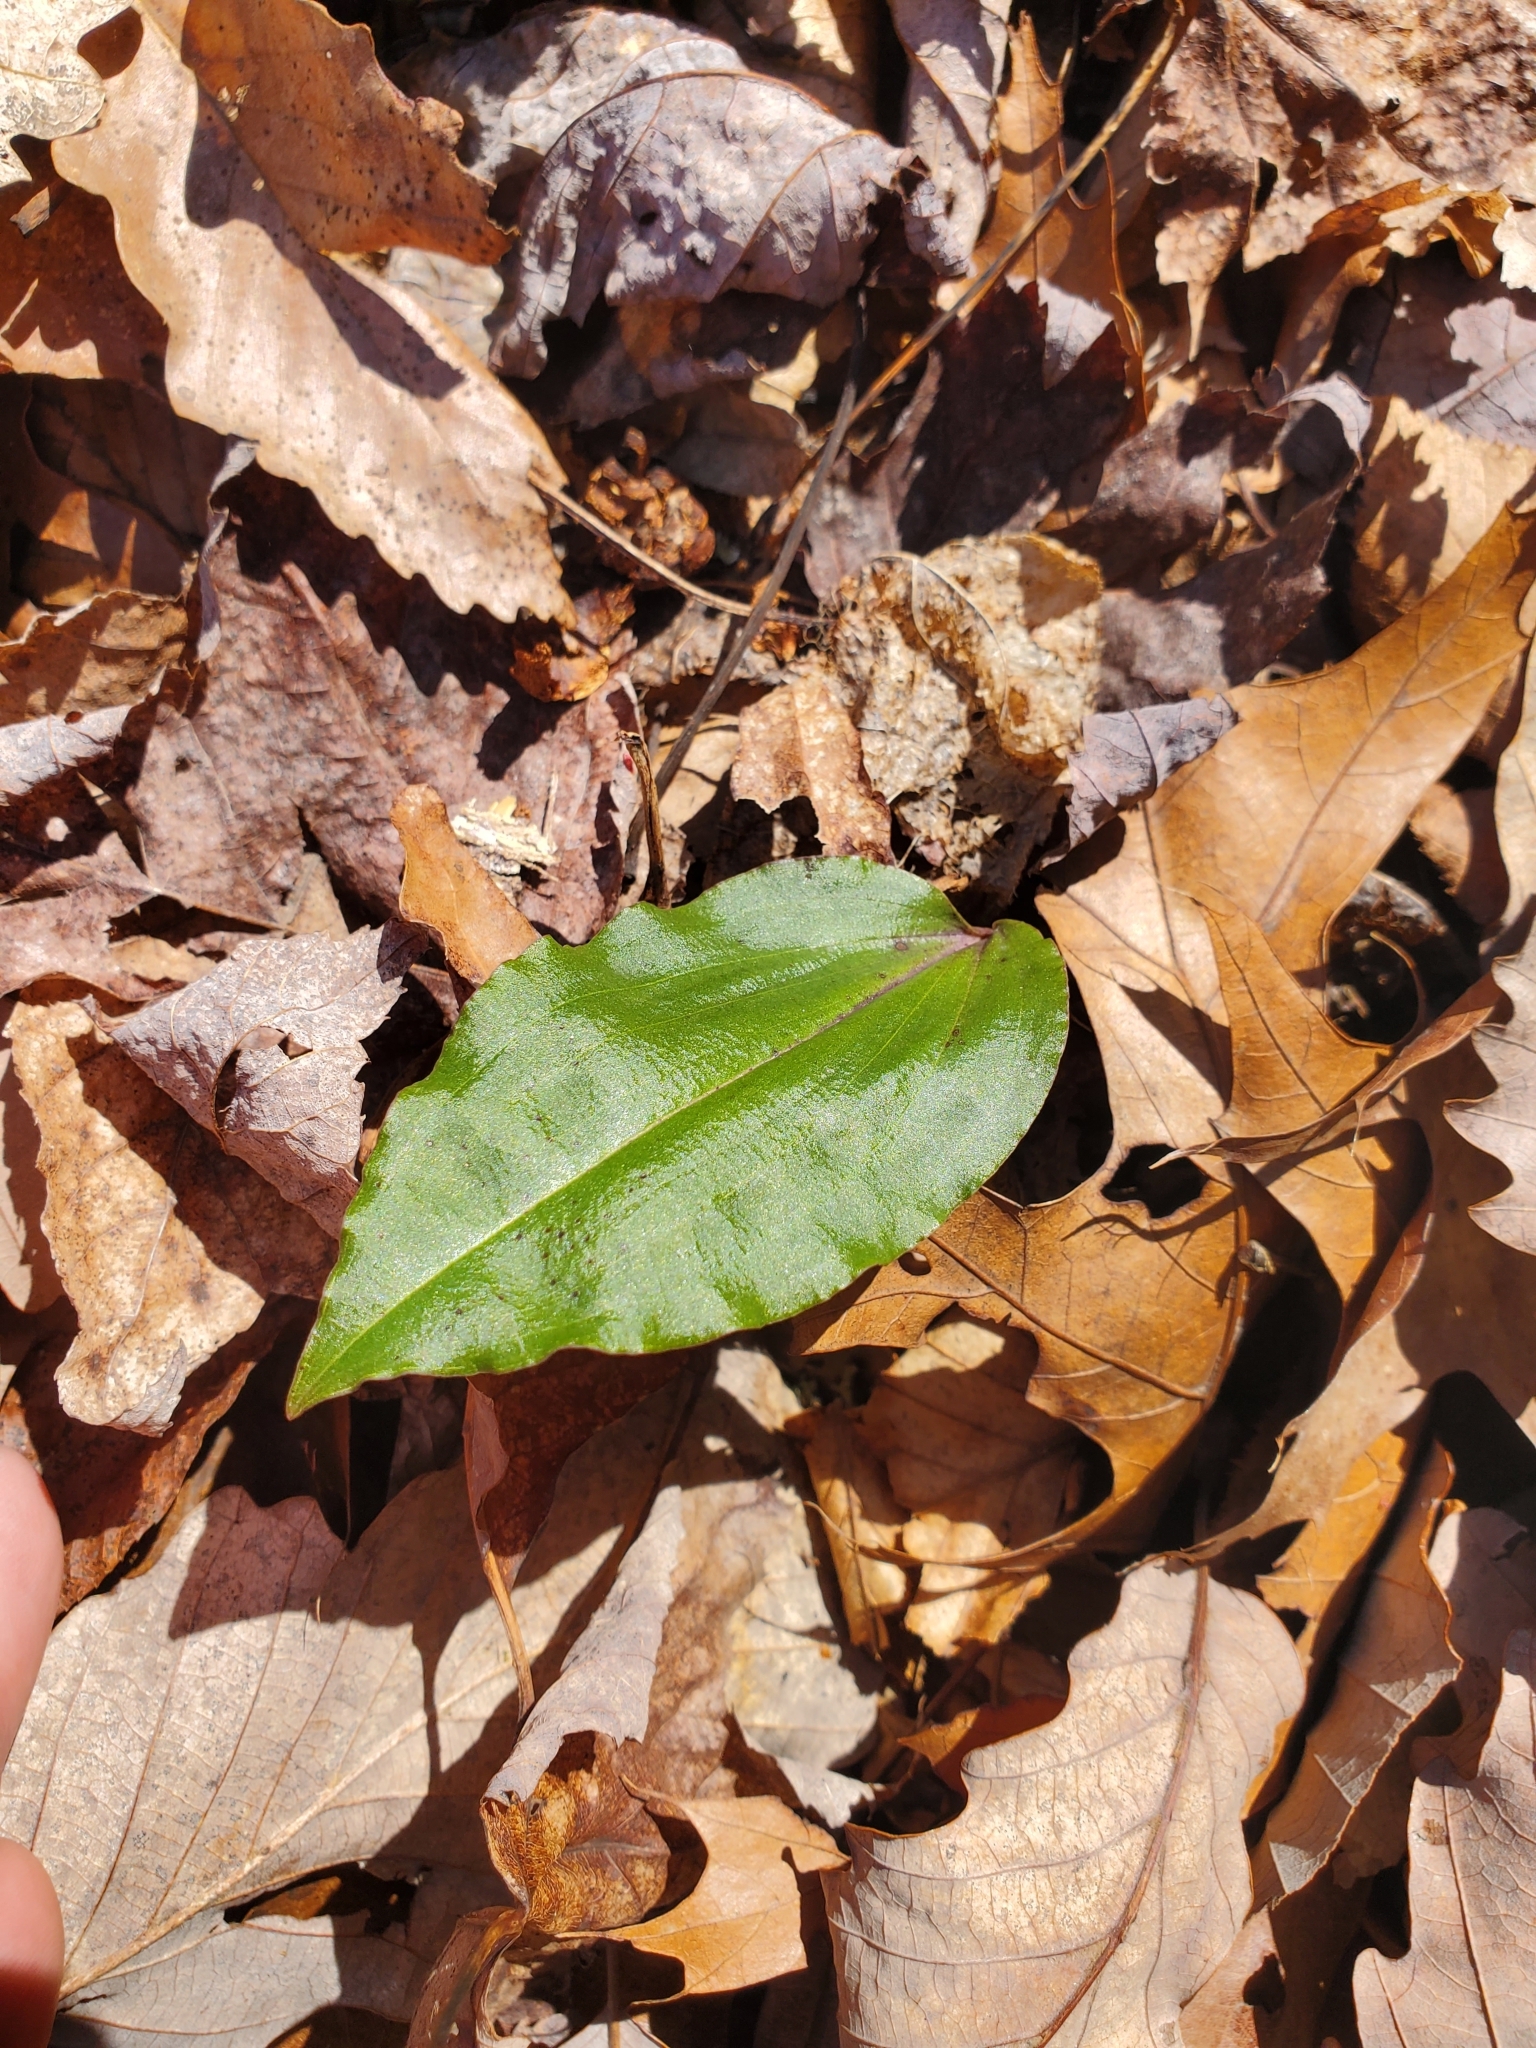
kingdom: Plantae
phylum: Tracheophyta
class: Liliopsida
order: Asparagales
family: Orchidaceae
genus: Tipularia
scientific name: Tipularia discolor
